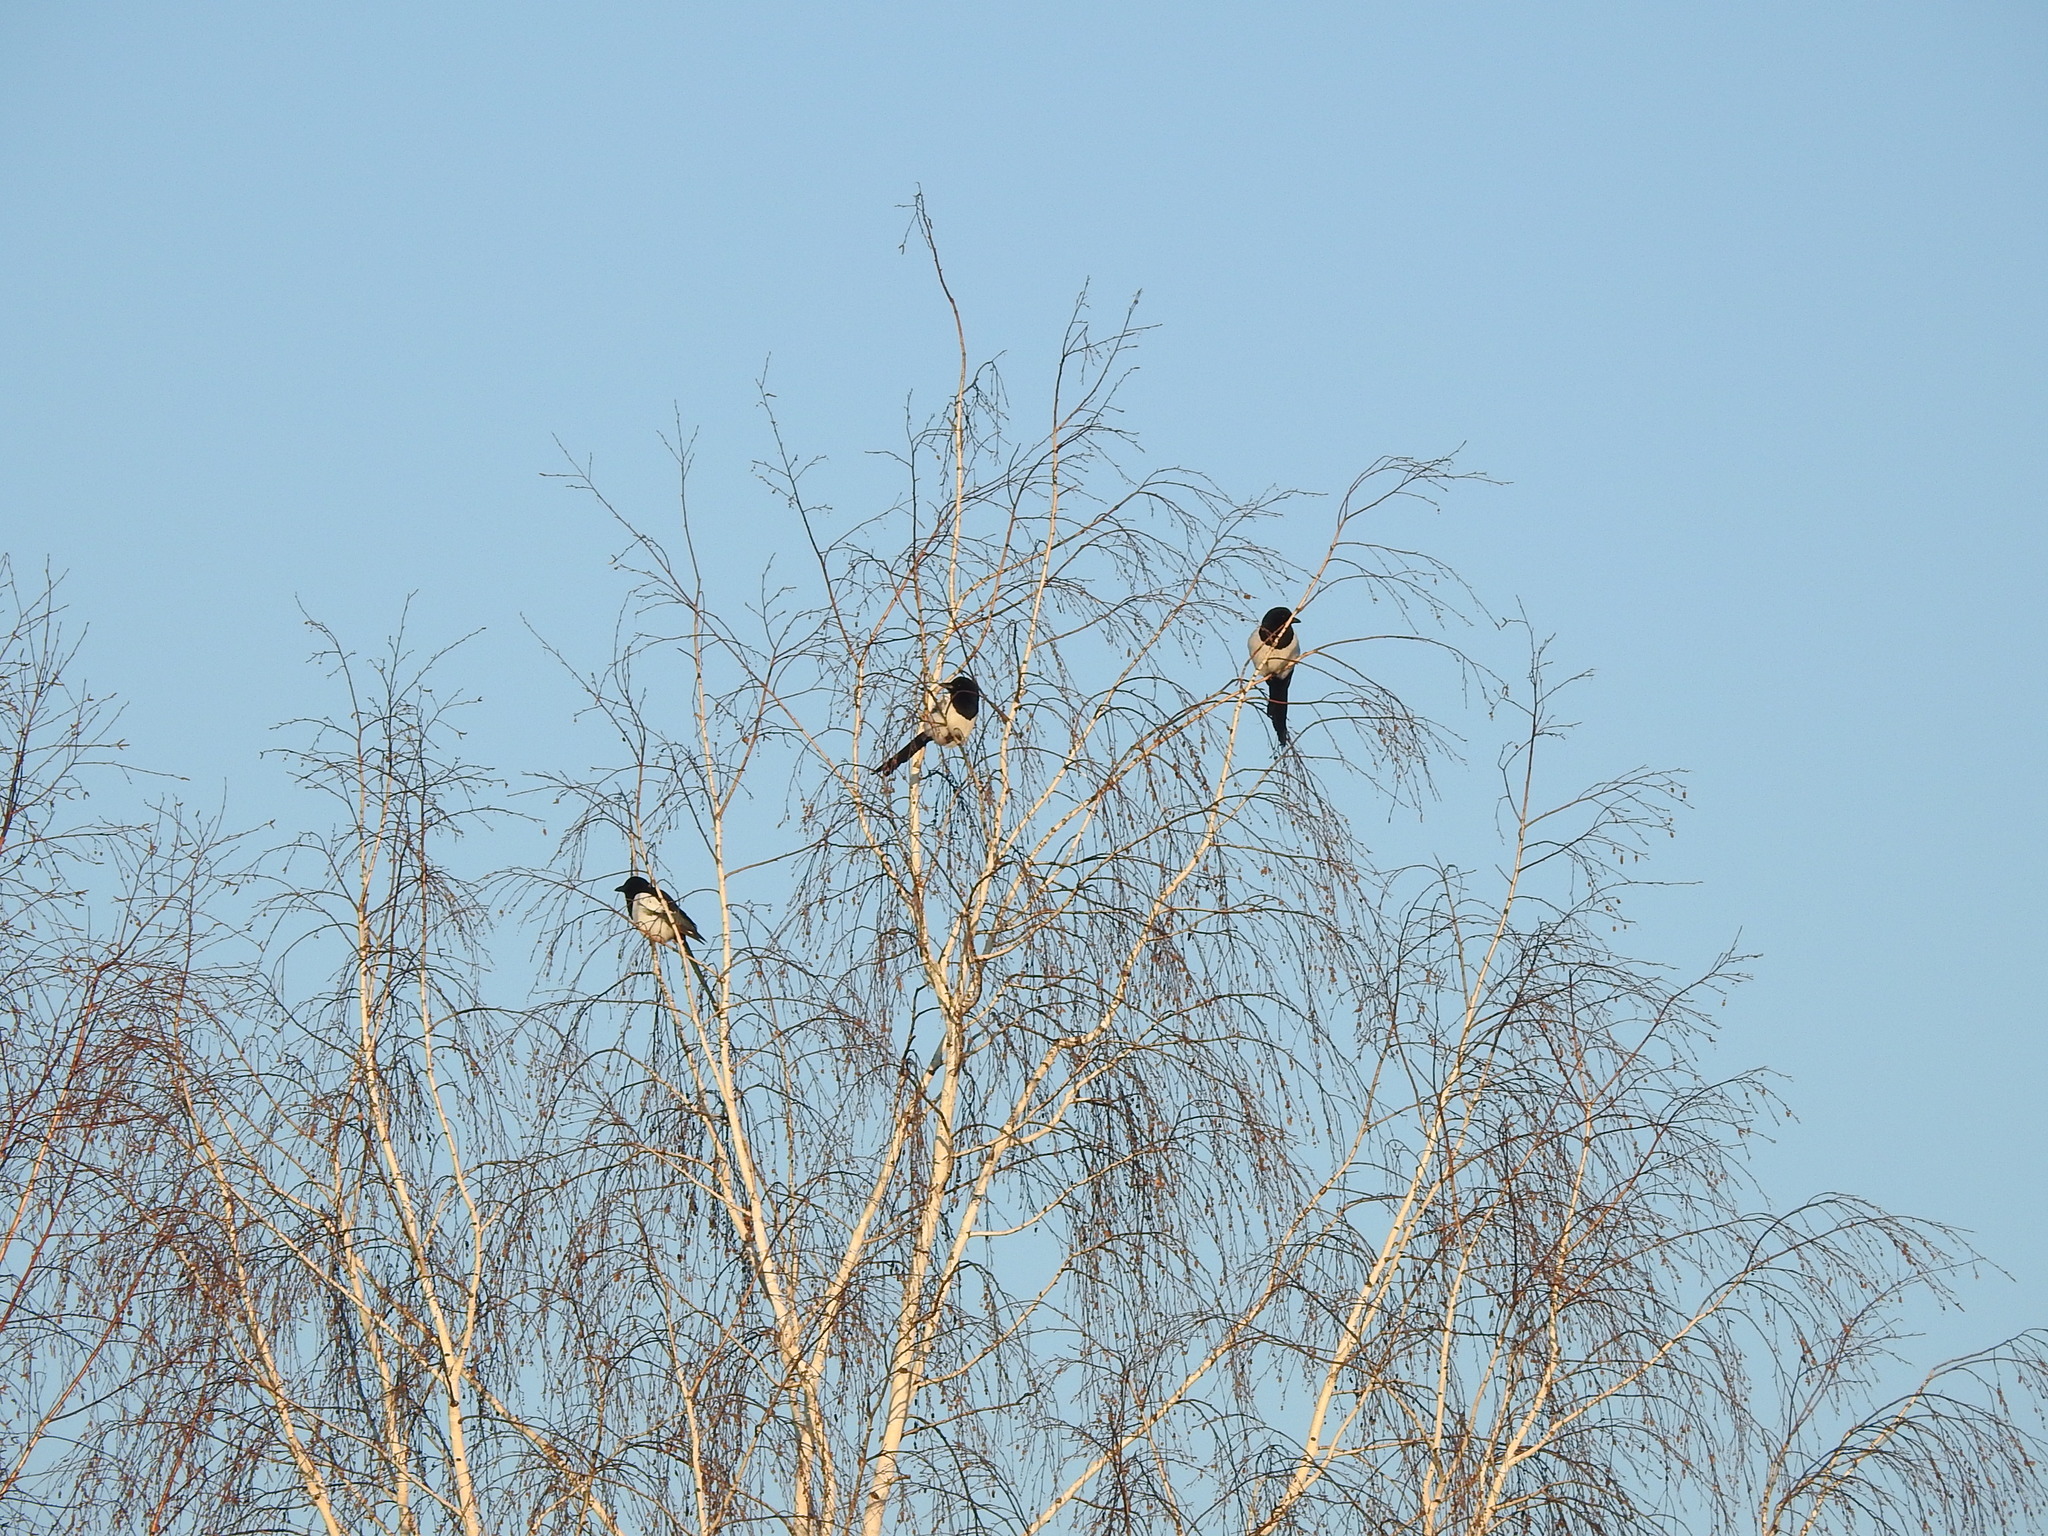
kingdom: Animalia
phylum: Chordata
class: Aves
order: Passeriformes
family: Corvidae
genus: Pica
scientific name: Pica pica
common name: Eurasian magpie
